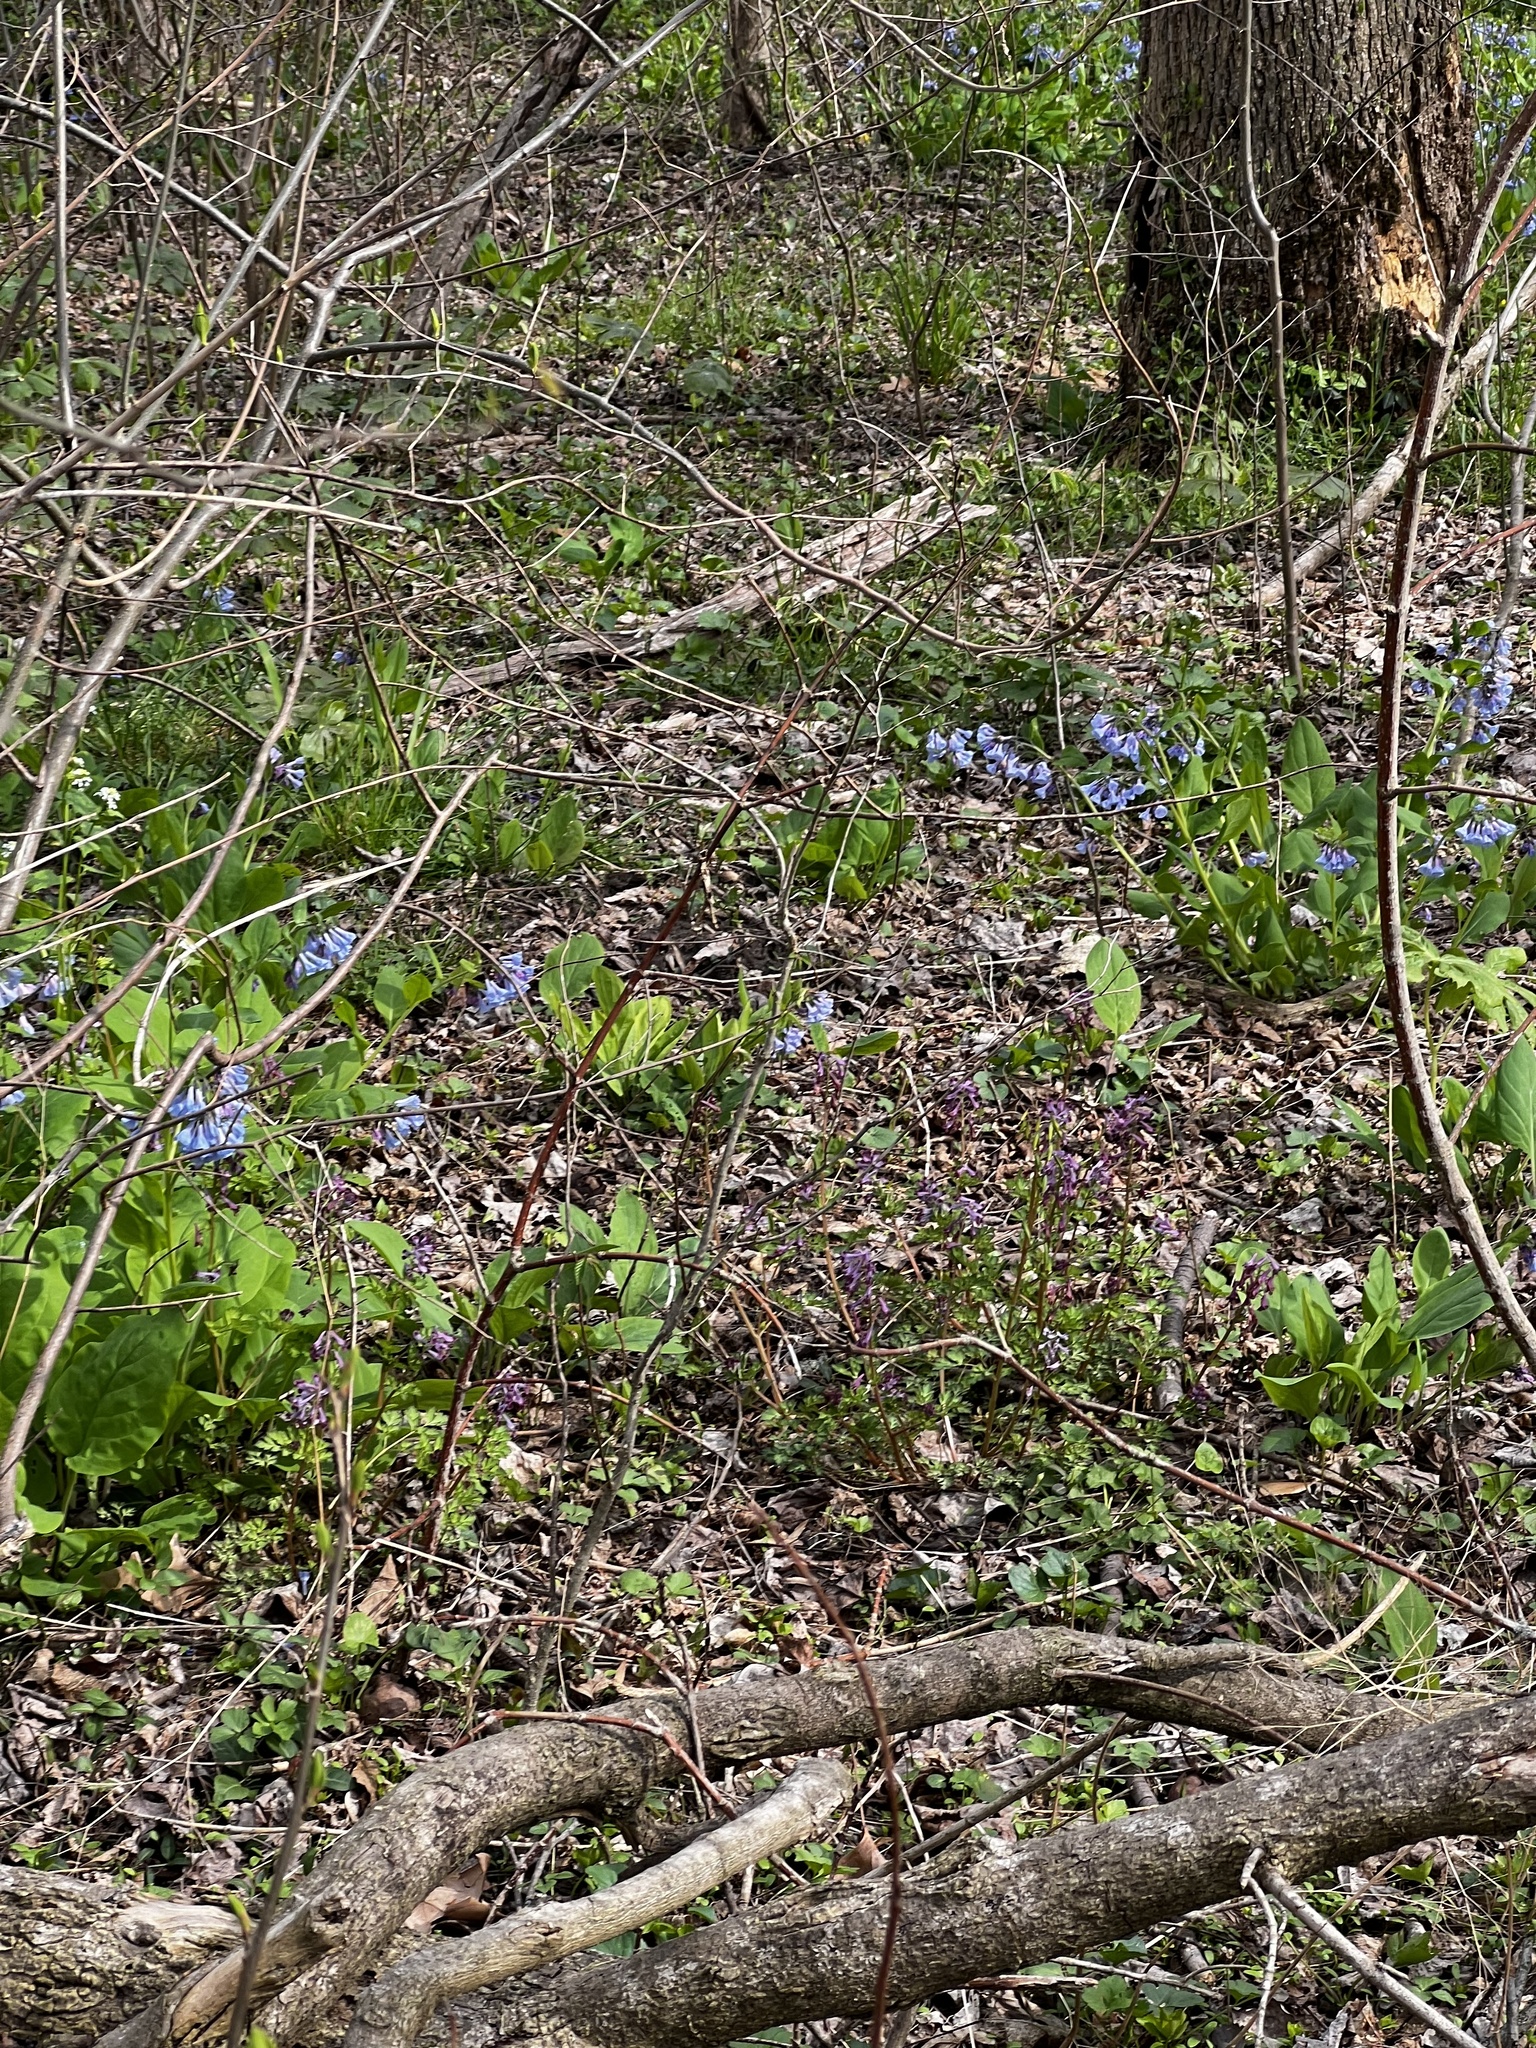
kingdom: Plantae
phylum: Tracheophyta
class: Magnoliopsida
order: Ranunculales
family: Papaveraceae
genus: Corydalis
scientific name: Corydalis incisa
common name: Incised fumewort
